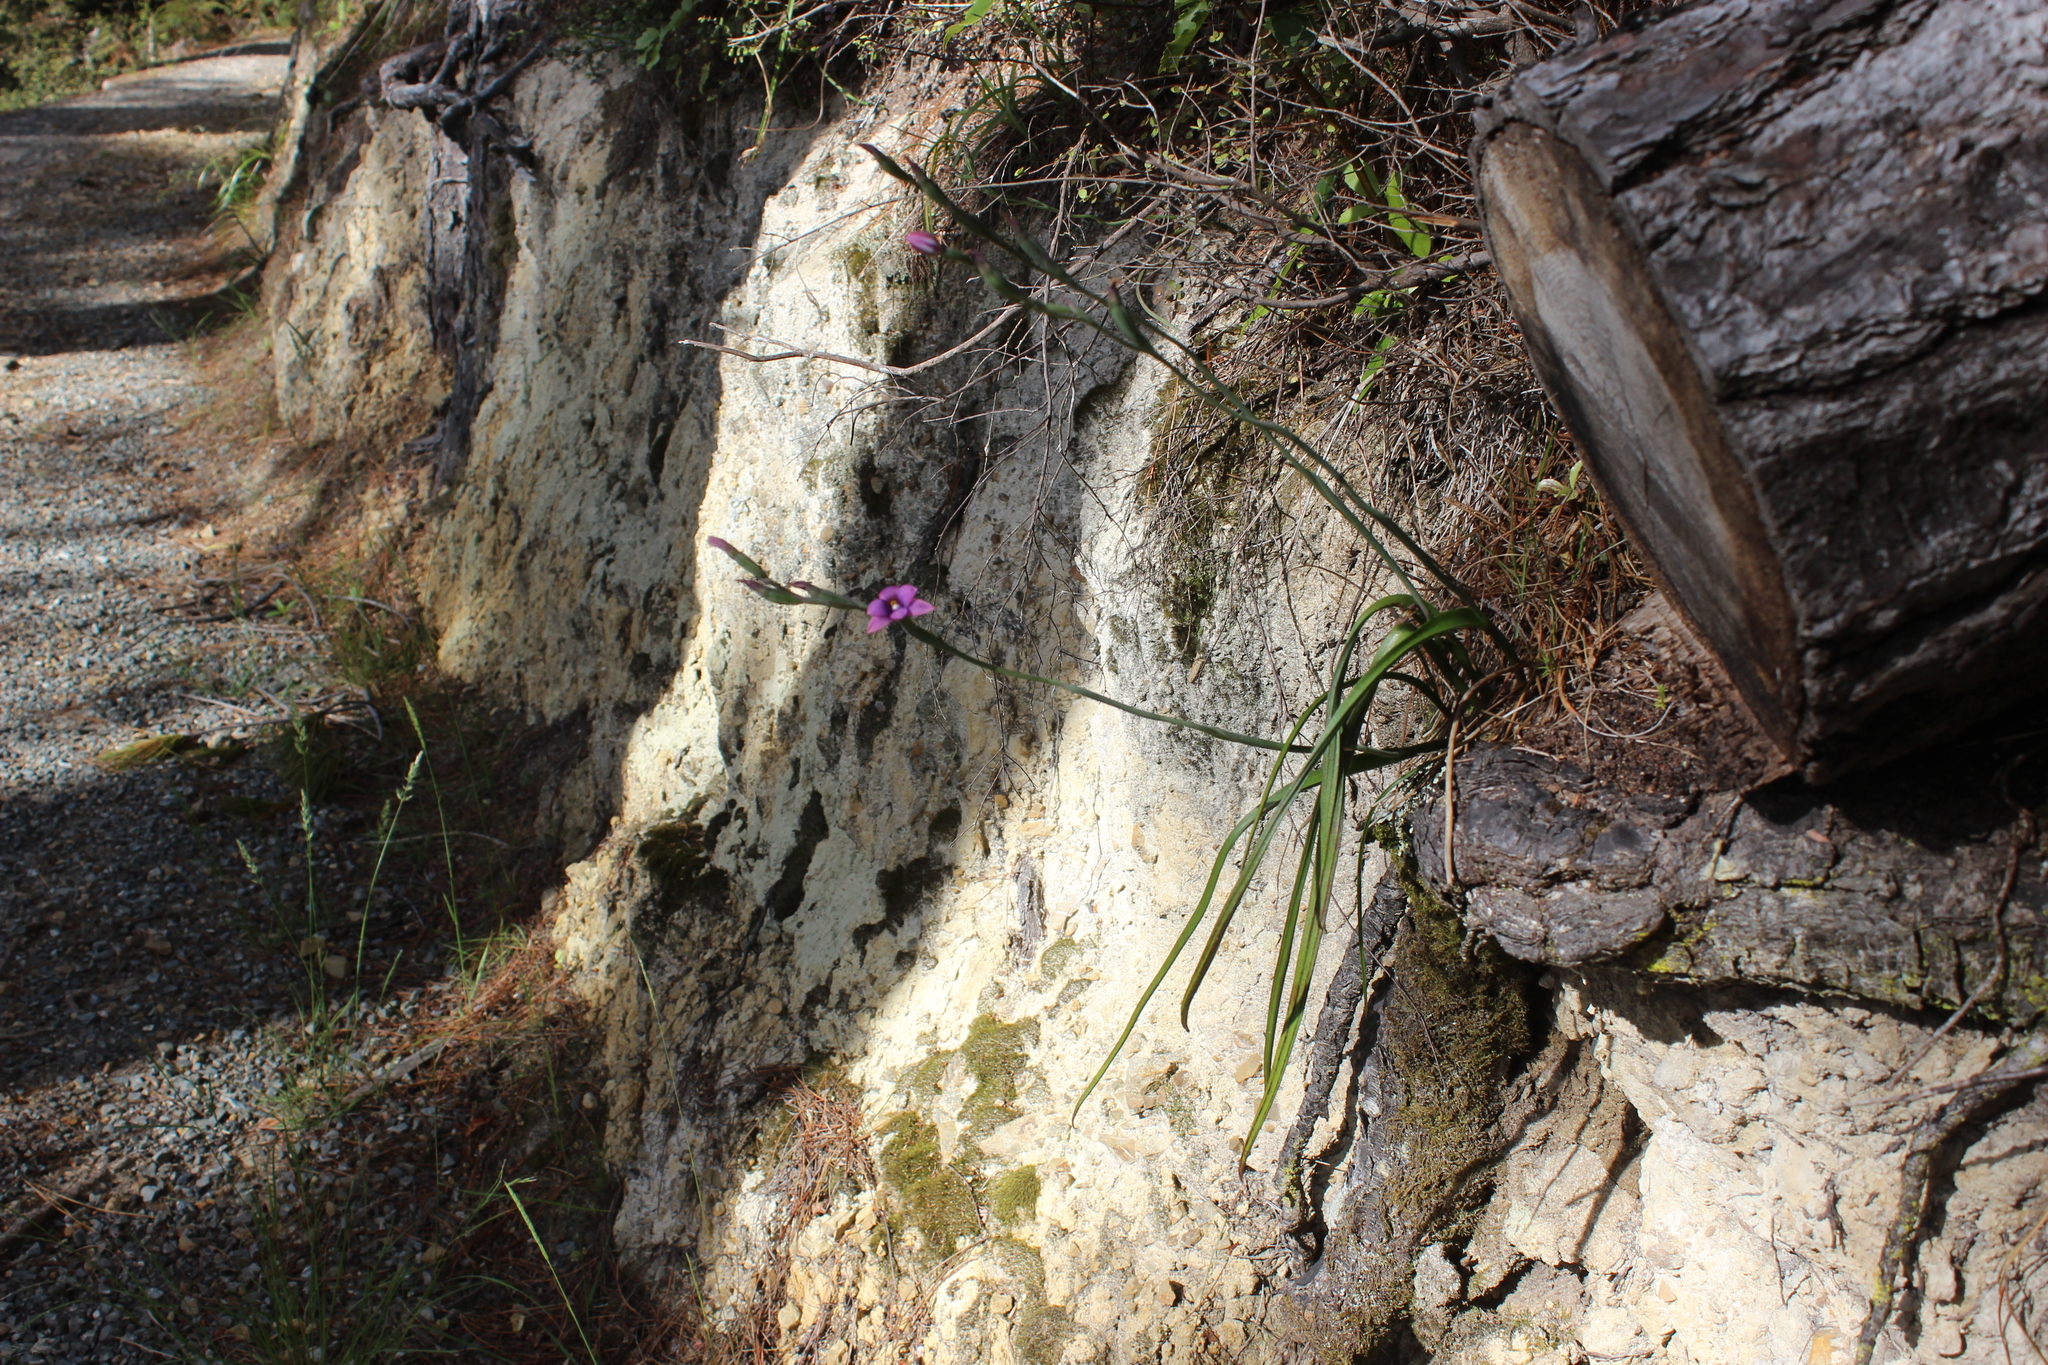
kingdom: Plantae
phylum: Tracheophyta
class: Liliopsida
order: Asparagales
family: Orchidaceae
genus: Thelymitra
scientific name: Thelymitra nervosa
